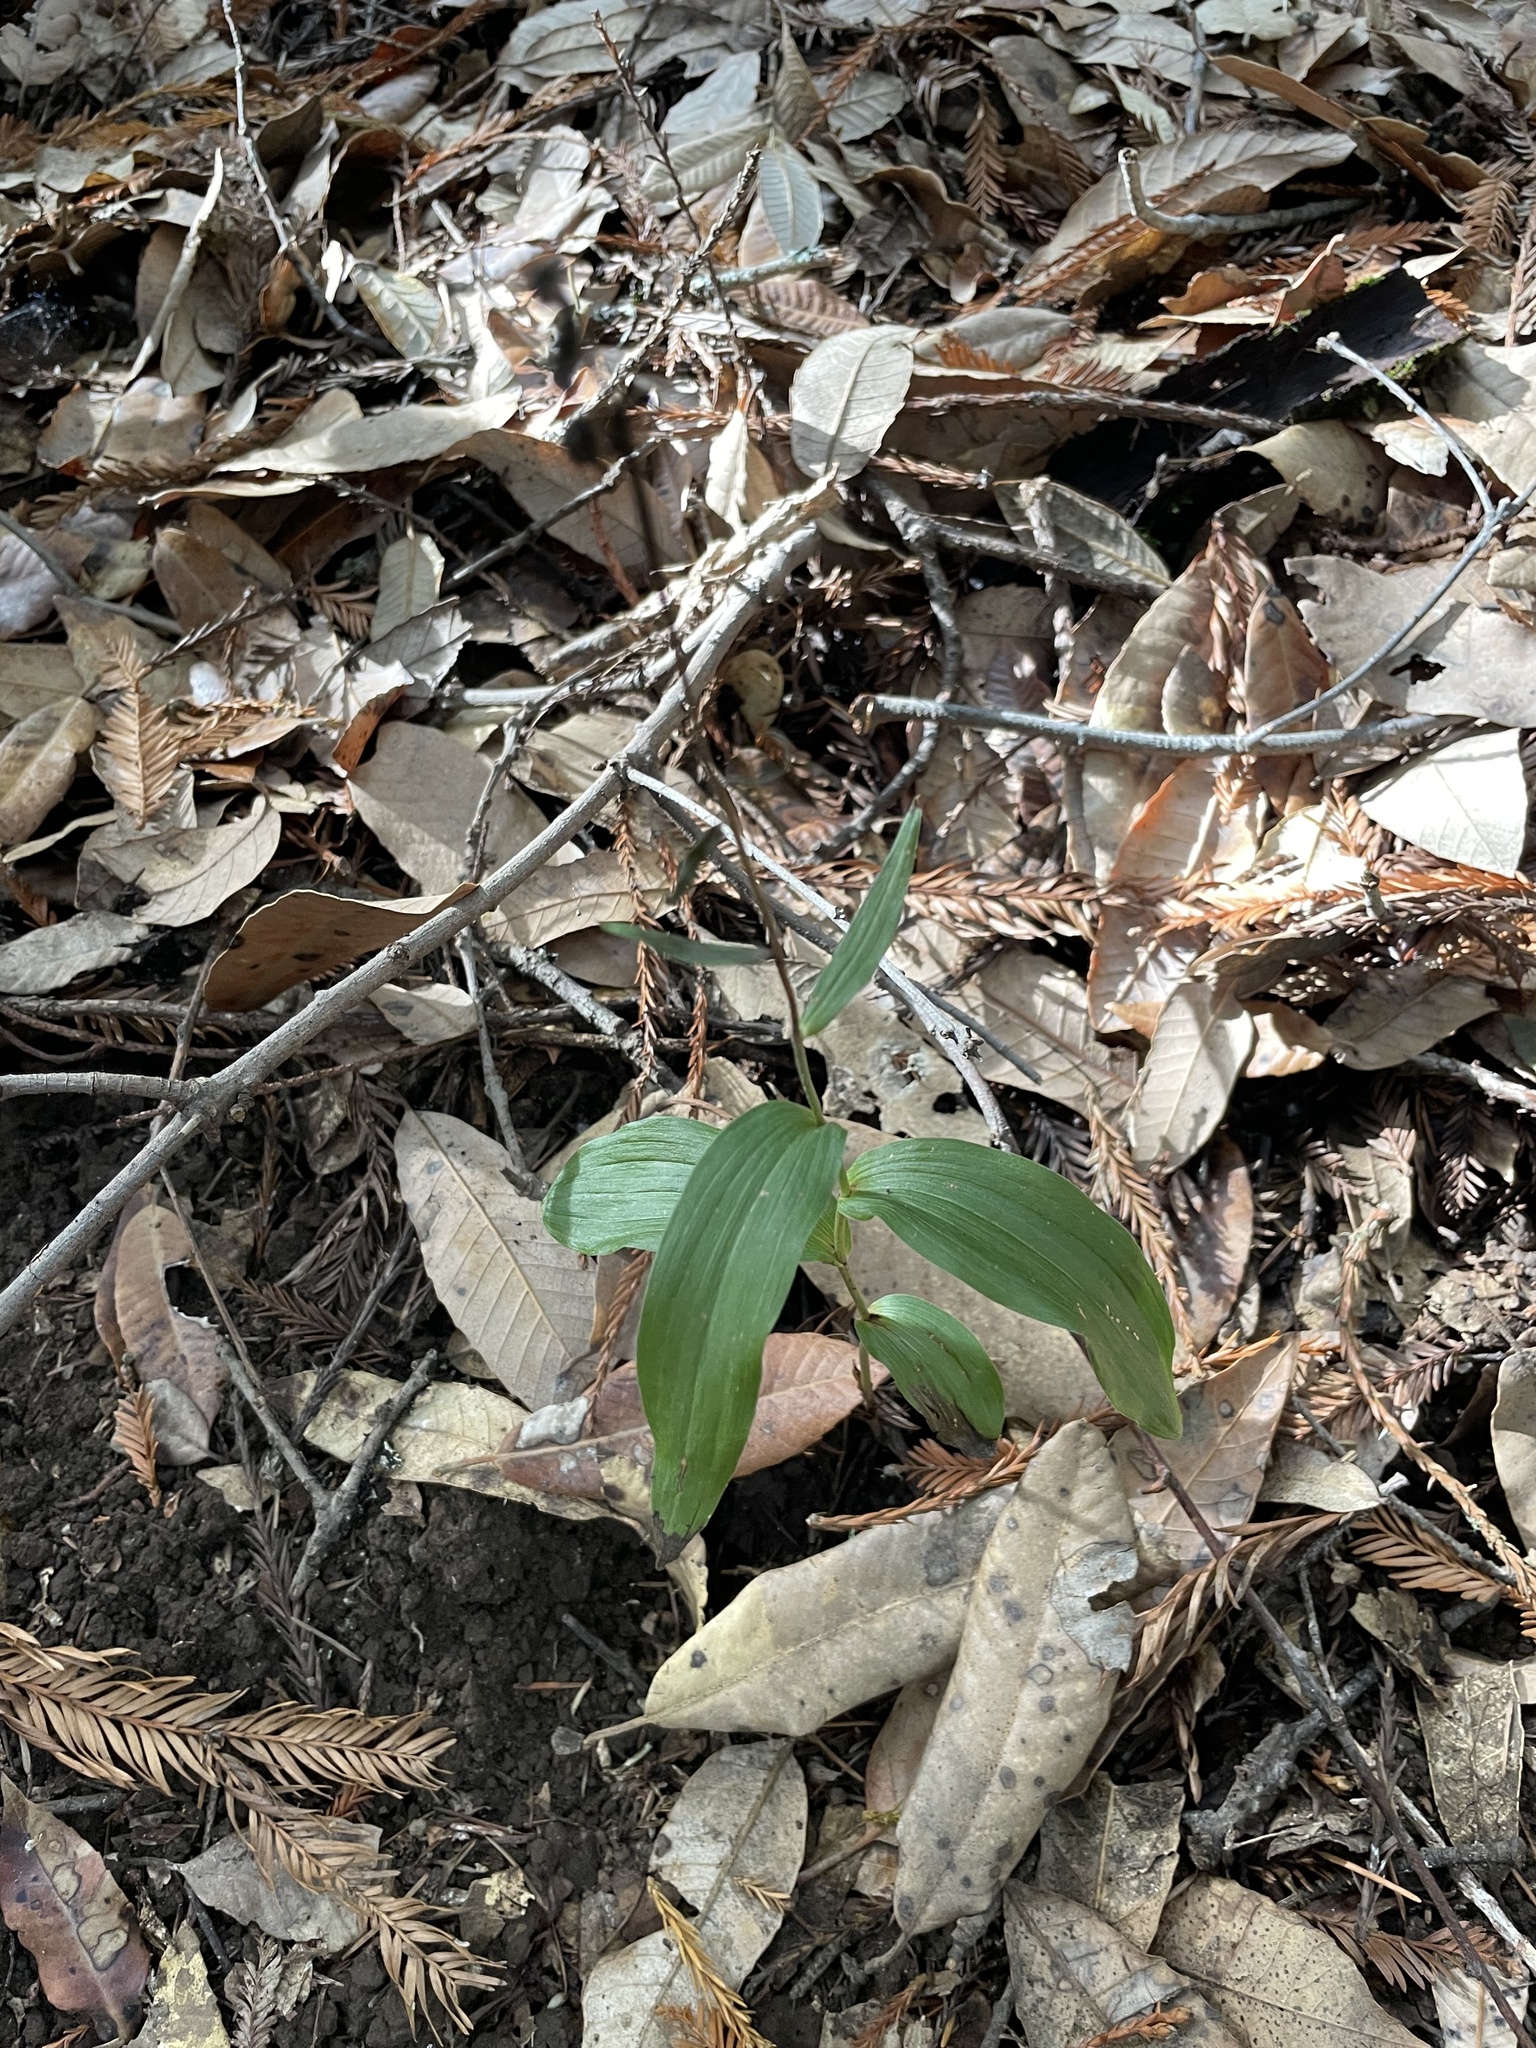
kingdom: Plantae
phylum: Tracheophyta
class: Liliopsida
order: Asparagales
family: Orchidaceae
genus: Epipactis
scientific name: Epipactis helleborine
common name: Broad-leaved helleborine
